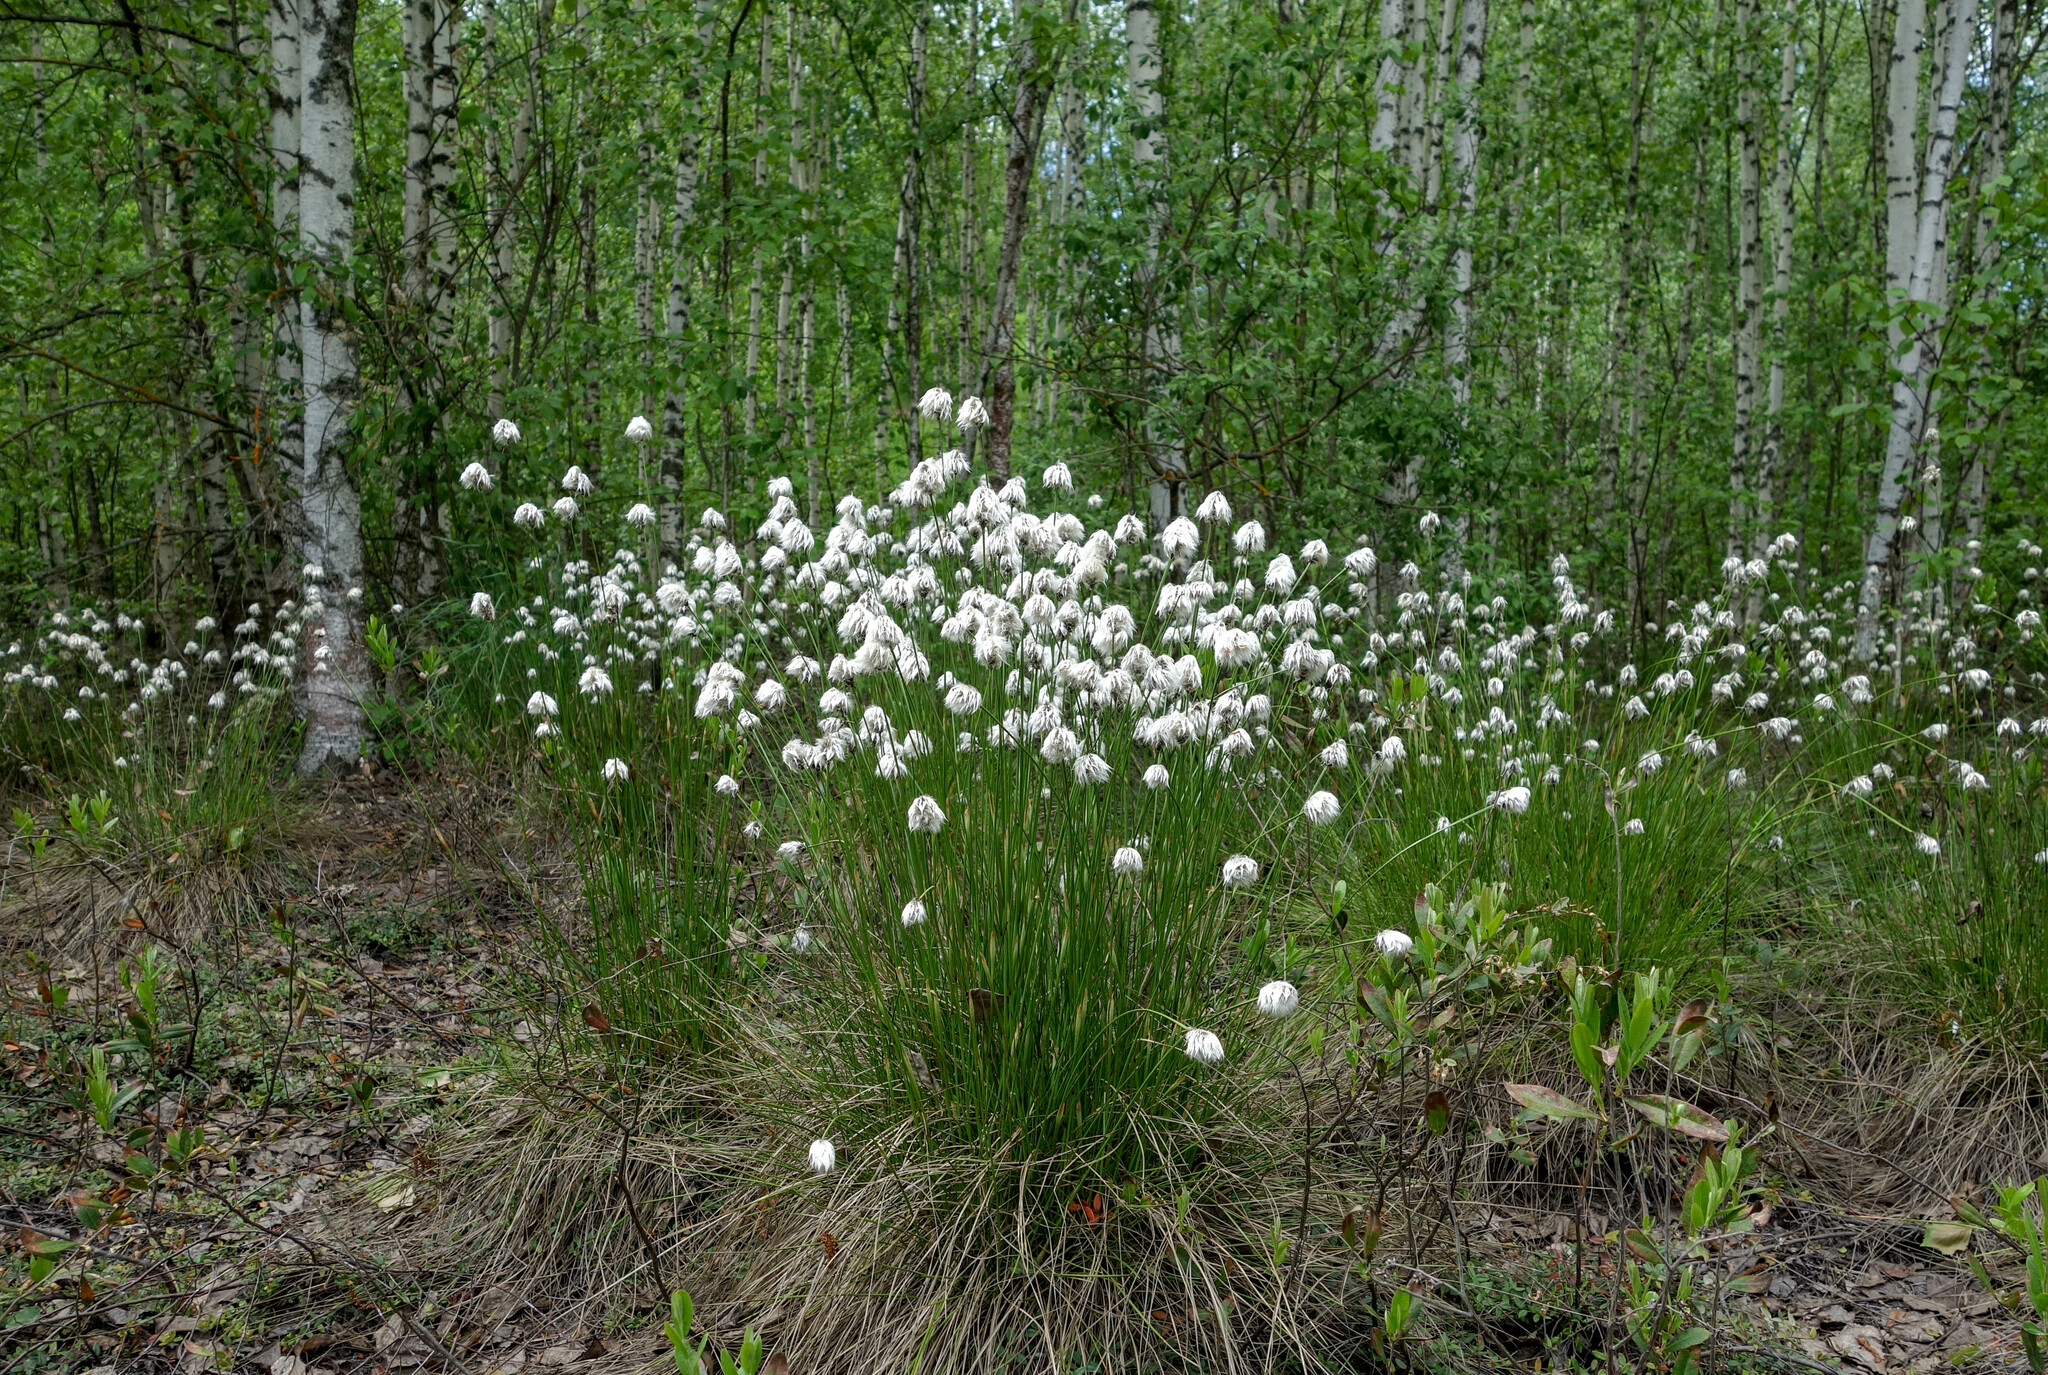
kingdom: Plantae
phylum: Tracheophyta
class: Liliopsida
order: Poales
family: Cyperaceae
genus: Eriophorum
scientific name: Eriophorum vaginatum
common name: Hare's-tail cottongrass
